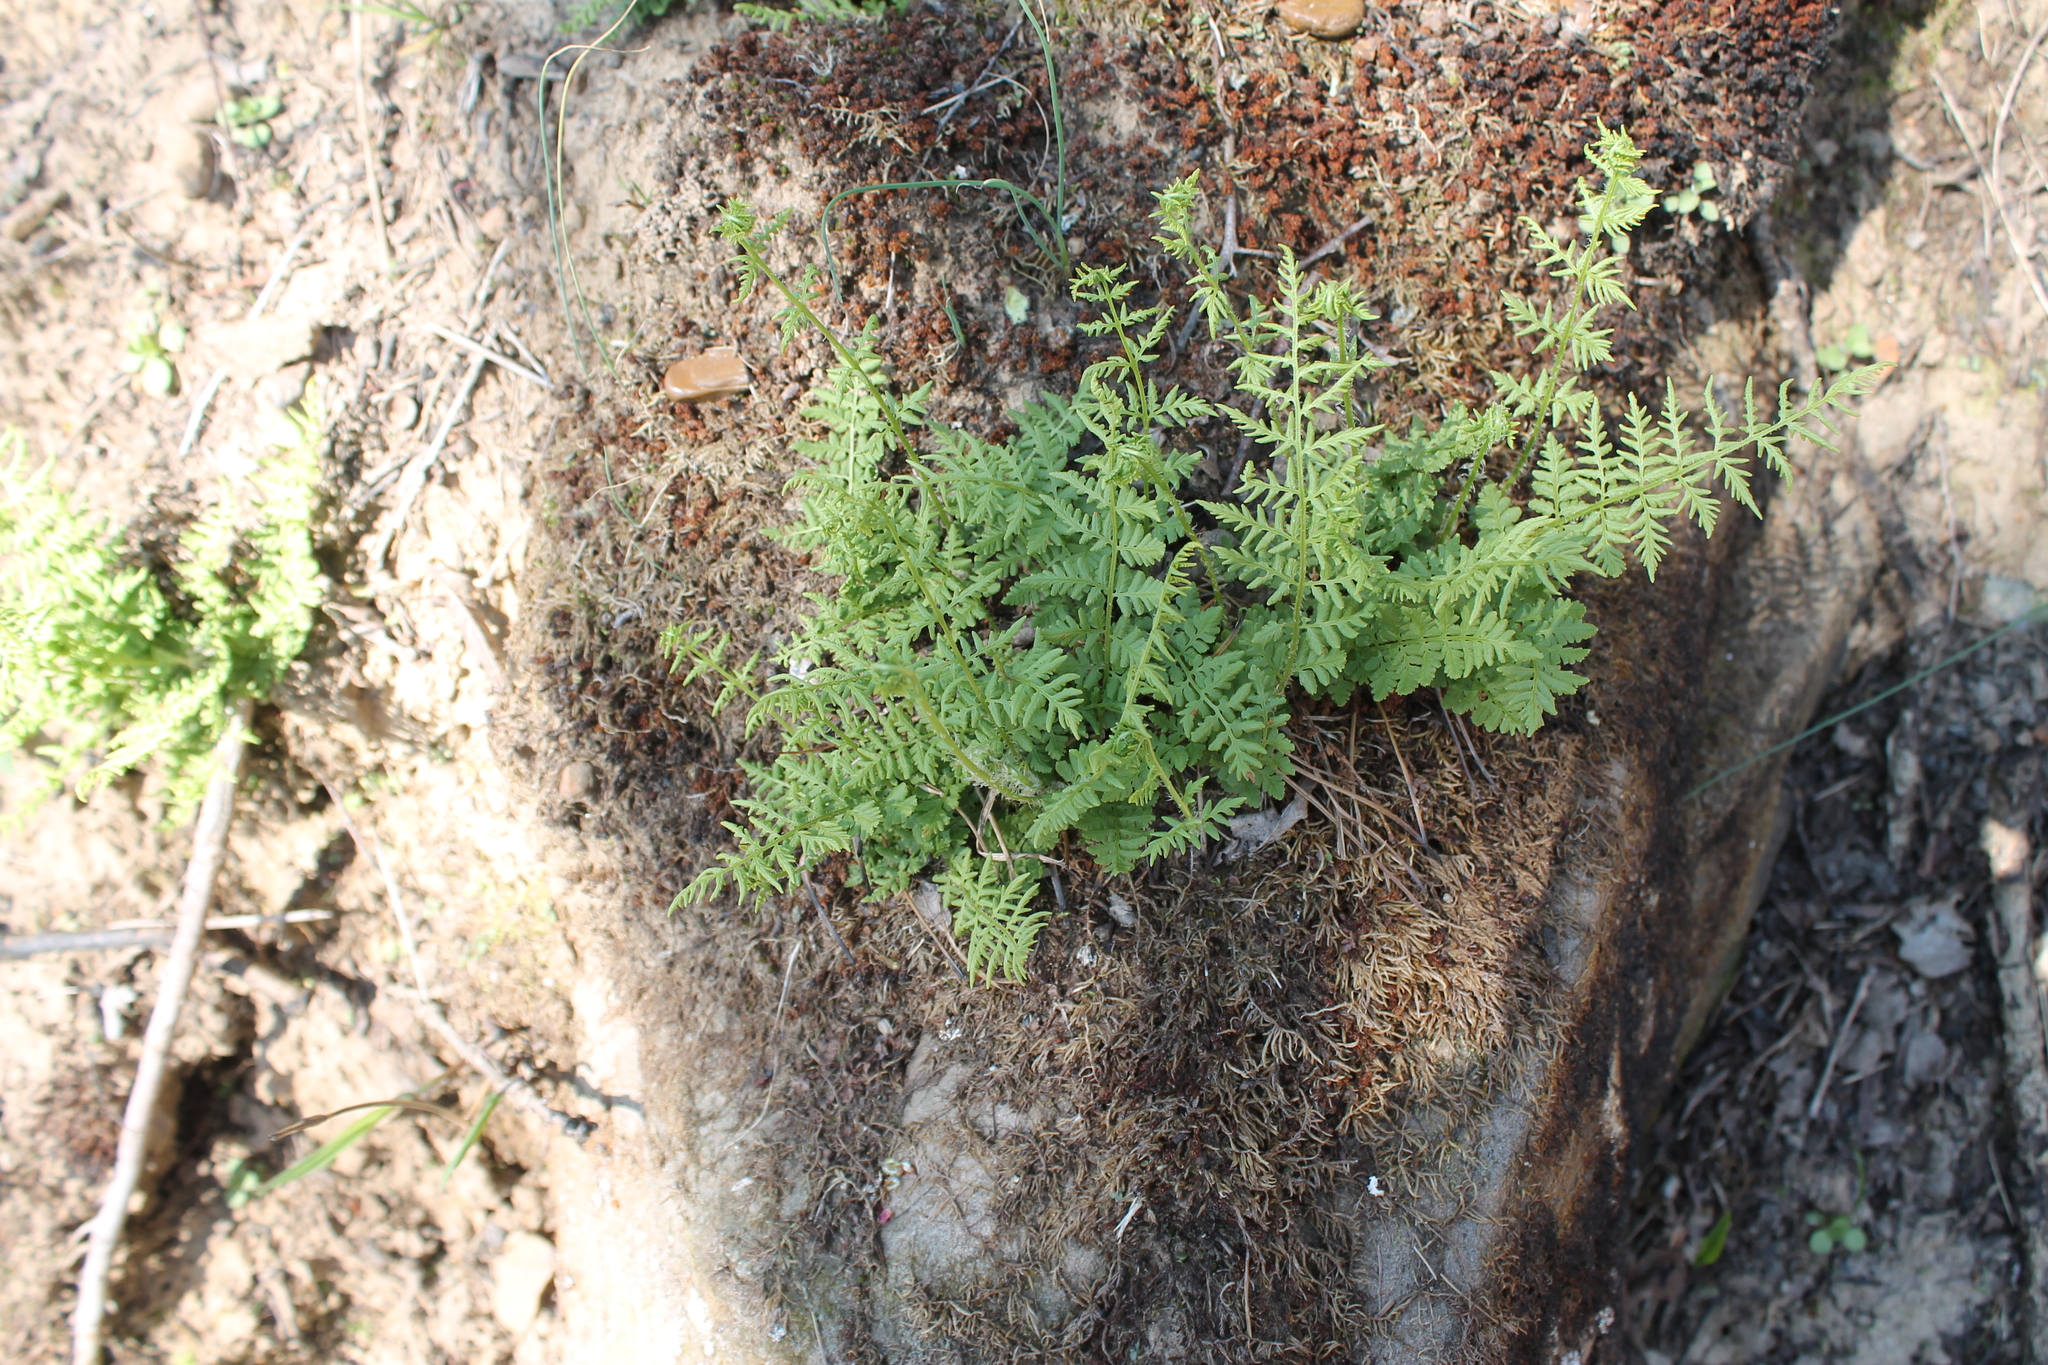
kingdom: Plantae
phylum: Tracheophyta
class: Polypodiopsida
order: Polypodiales
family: Woodsiaceae
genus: Physematium
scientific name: Physematium obtusum
